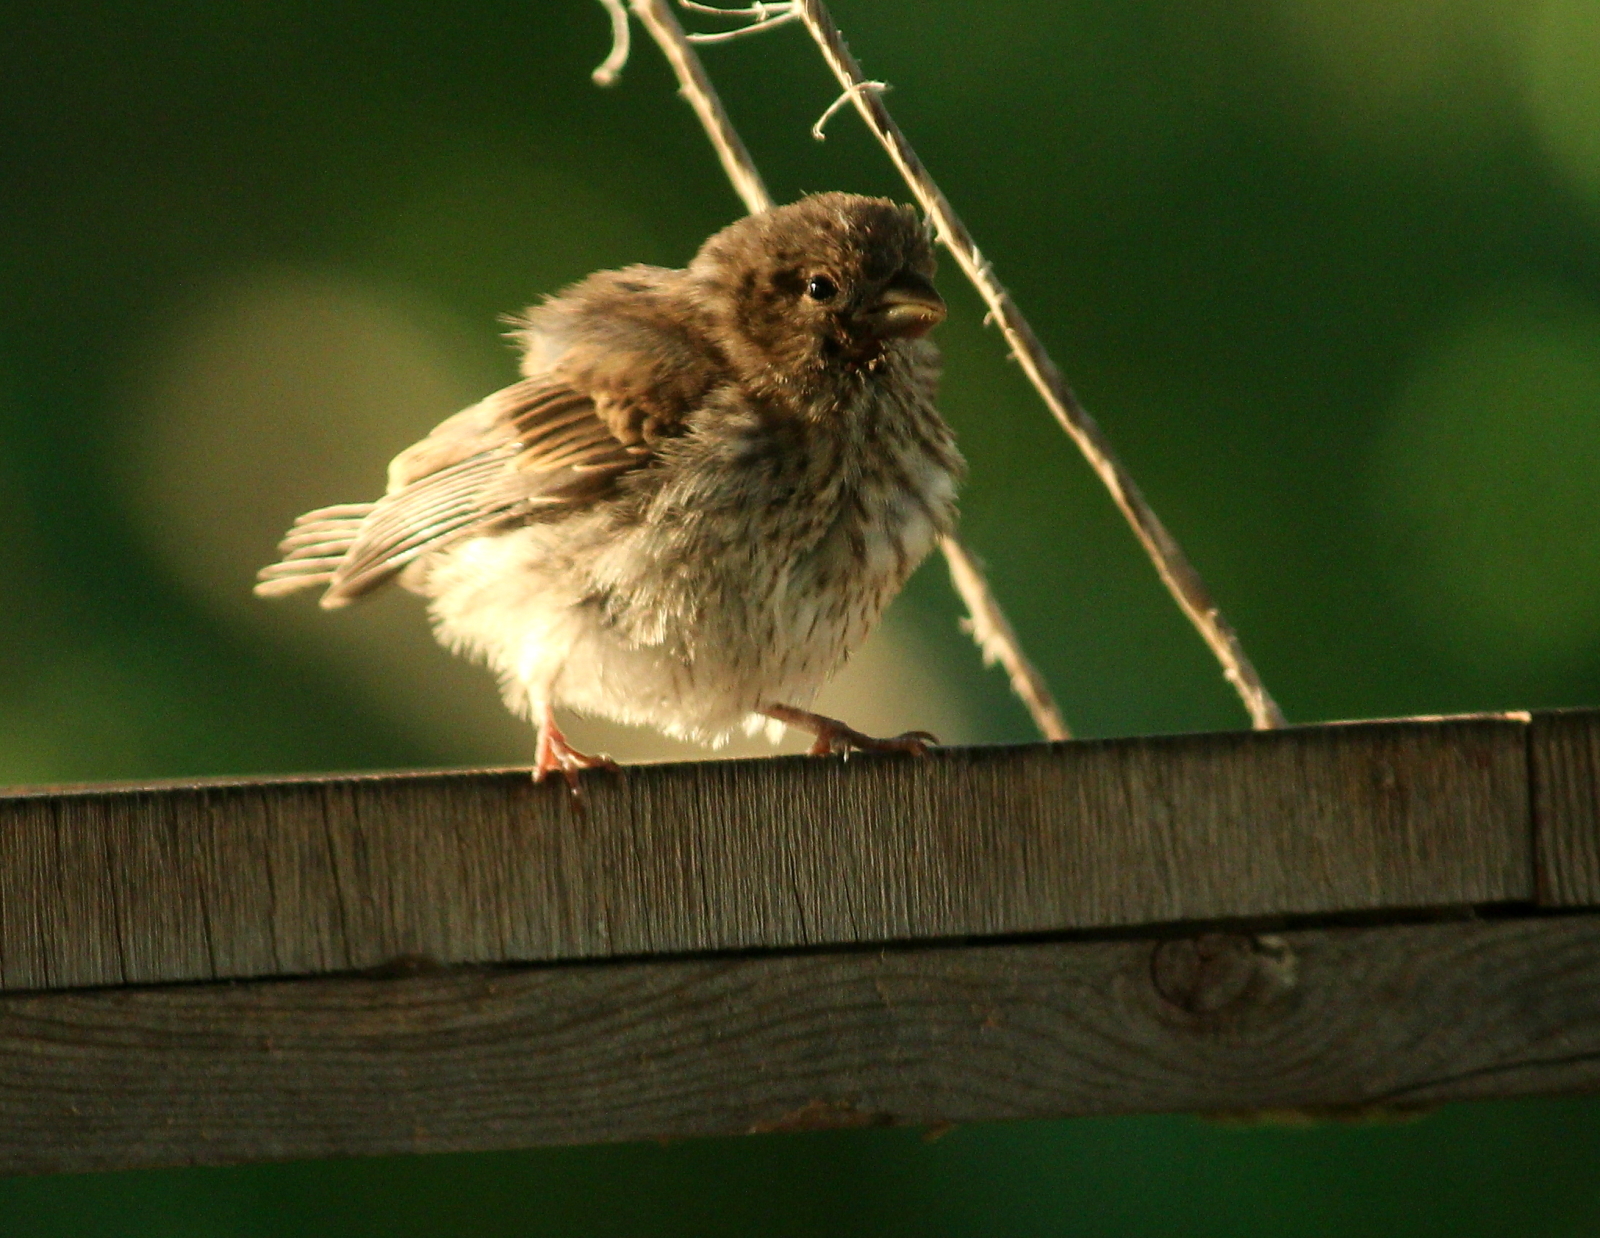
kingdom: Animalia
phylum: Chordata
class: Aves
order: Passeriformes
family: Fringillidae
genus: Haemorhous
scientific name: Haemorhous mexicanus
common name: House finch
